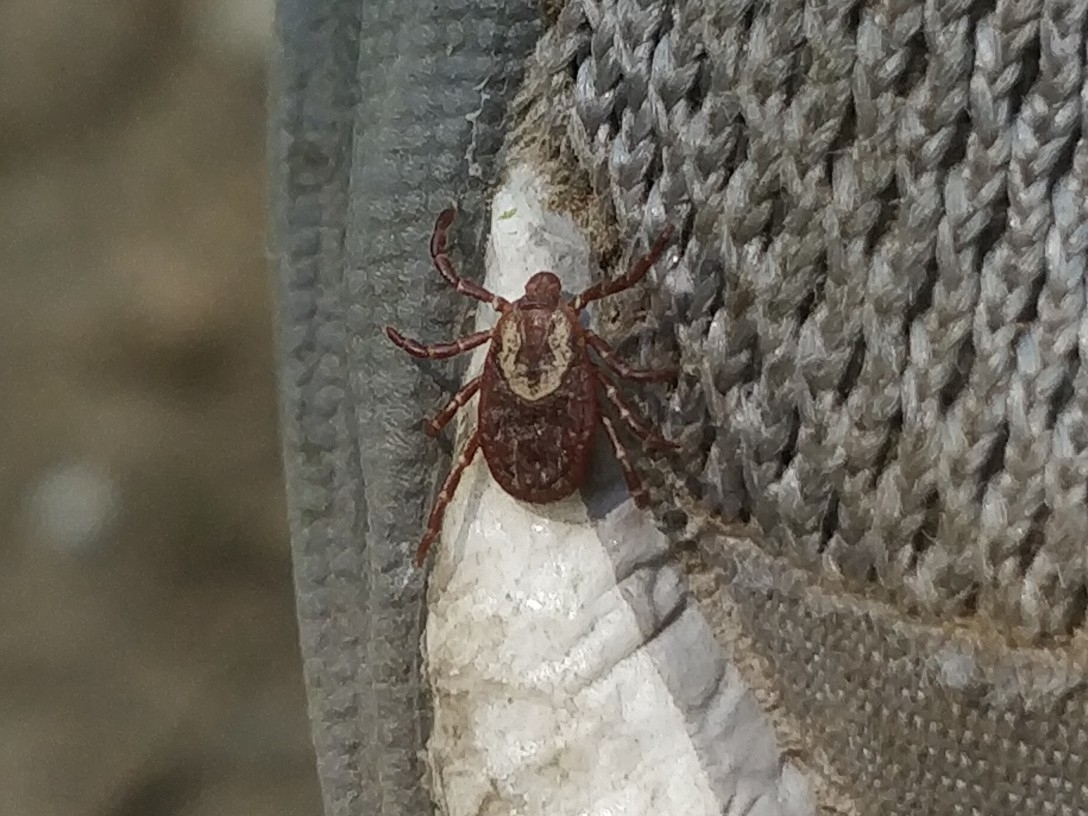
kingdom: Animalia
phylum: Arthropoda
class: Arachnida
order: Ixodida
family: Ixodidae
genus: Dermacentor
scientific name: Dermacentor variabilis
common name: American dog tick
